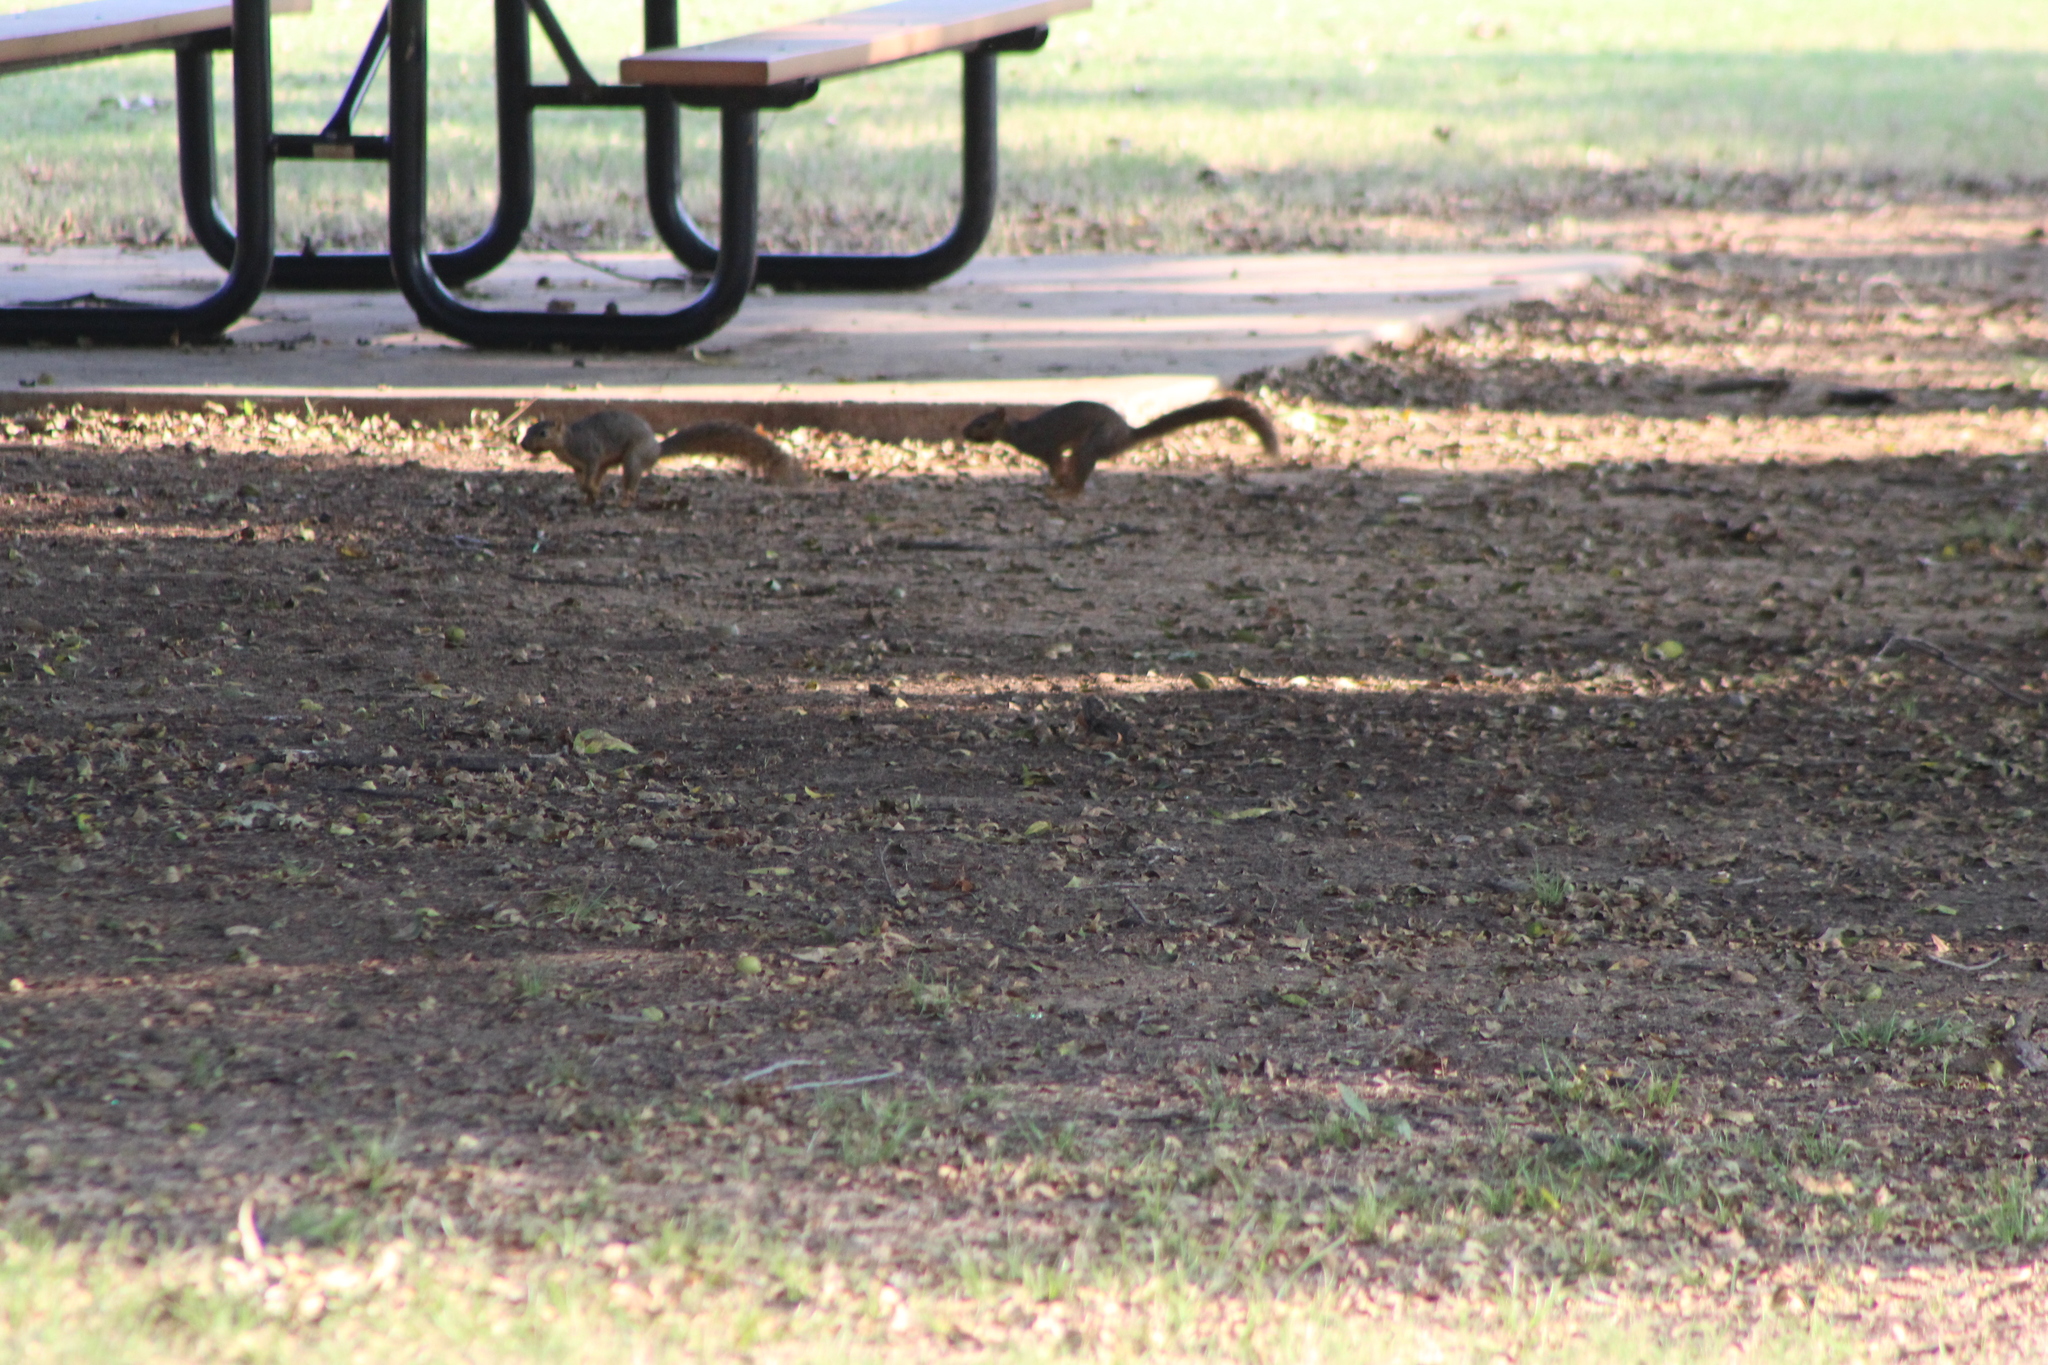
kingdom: Animalia
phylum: Chordata
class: Mammalia
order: Rodentia
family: Sciuridae
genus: Sciurus
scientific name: Sciurus niger
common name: Fox squirrel
